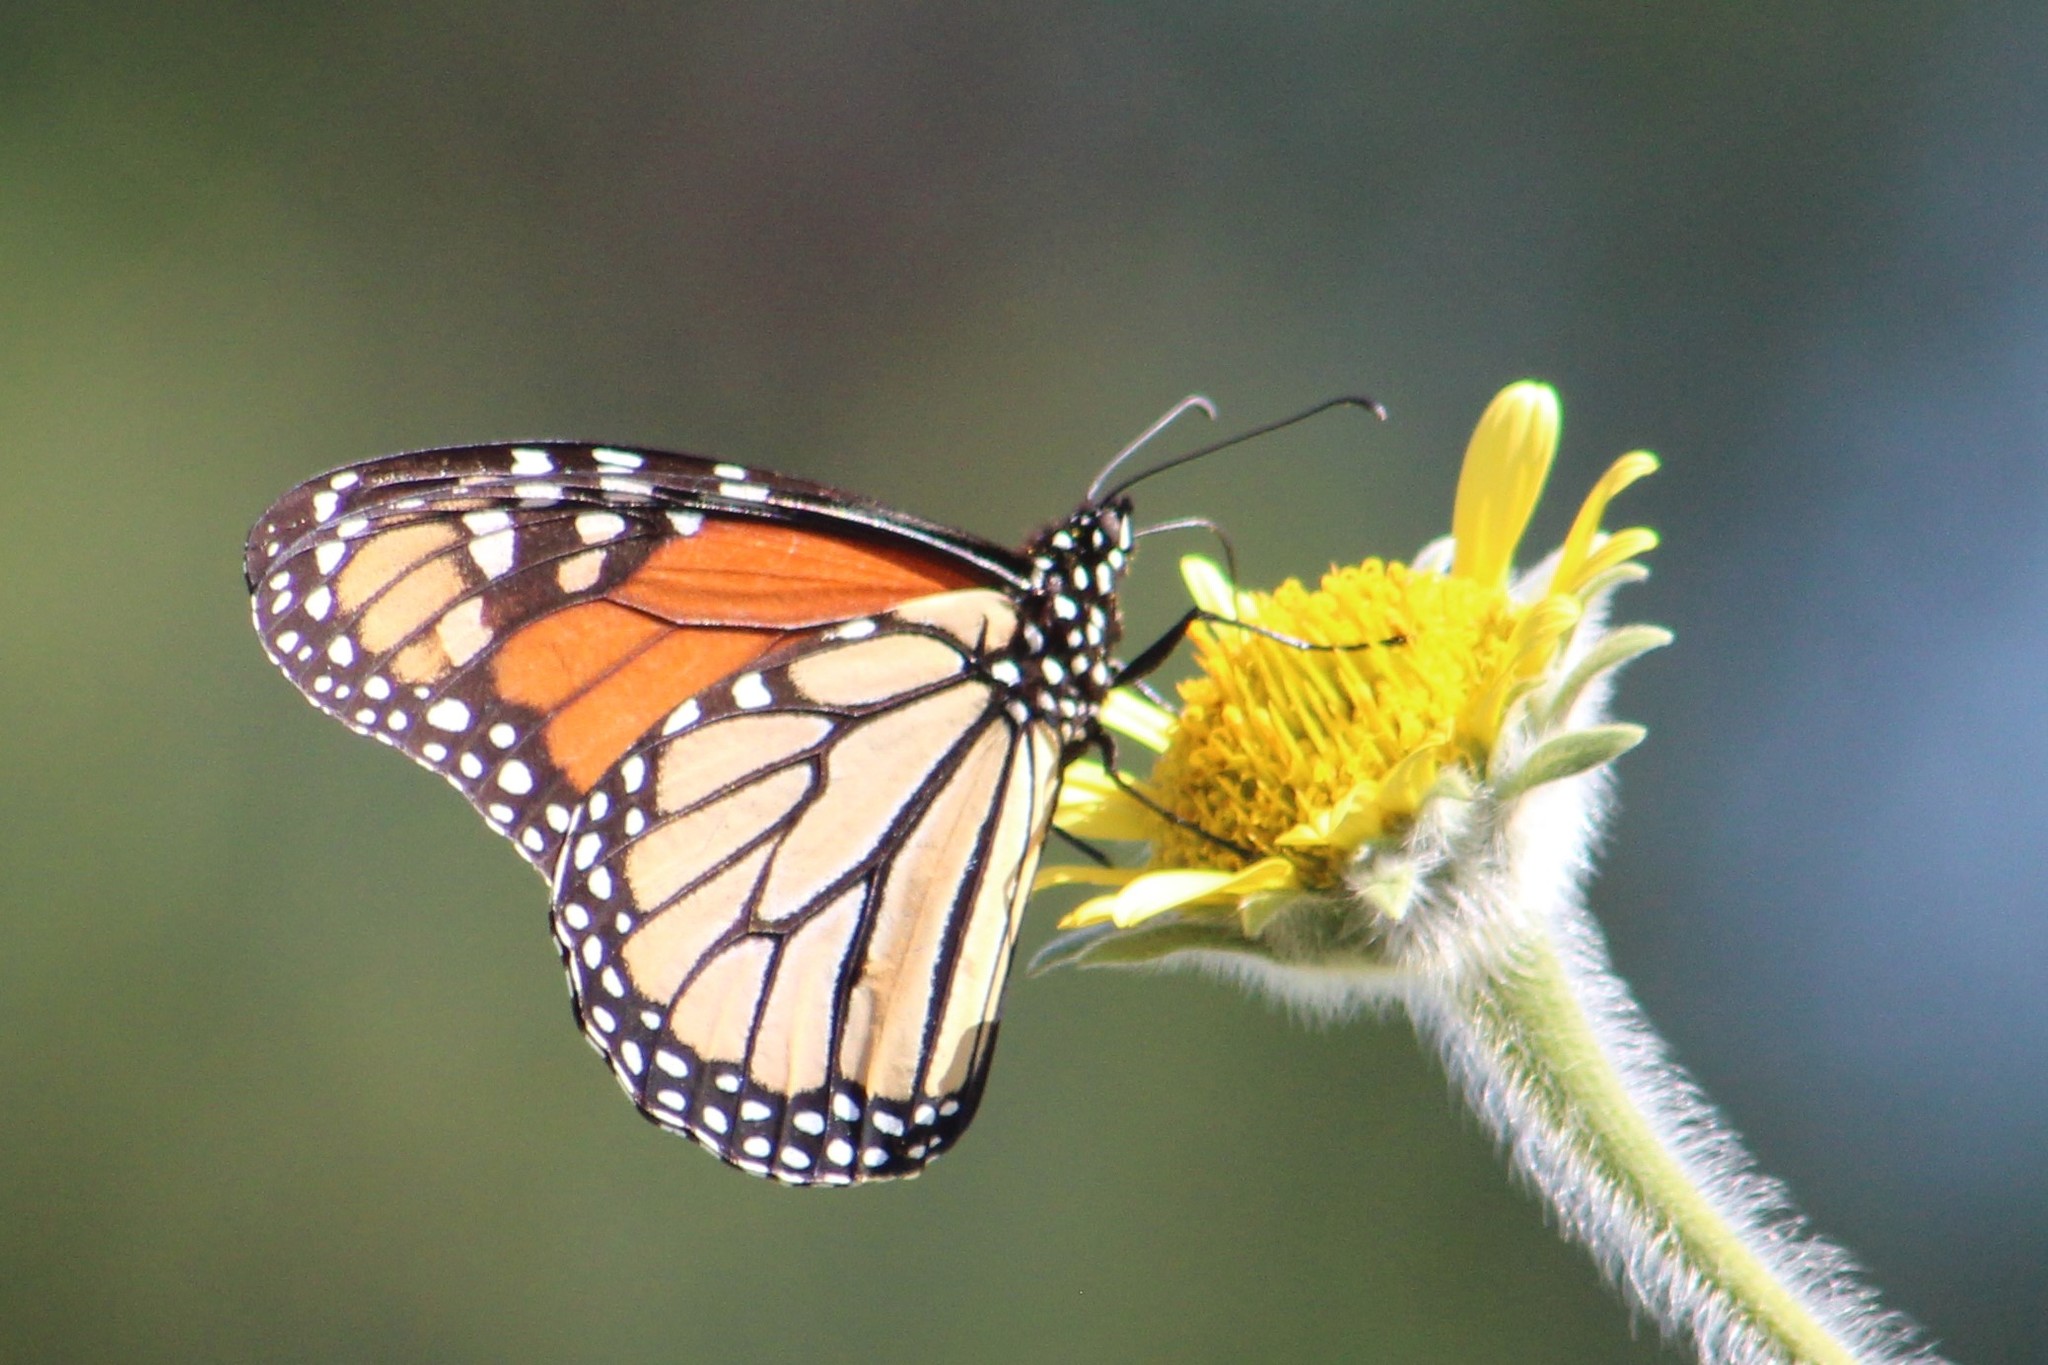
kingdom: Animalia
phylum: Arthropoda
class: Insecta
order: Lepidoptera
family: Nymphalidae
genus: Danaus
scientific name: Danaus plexippus
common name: Monarch
